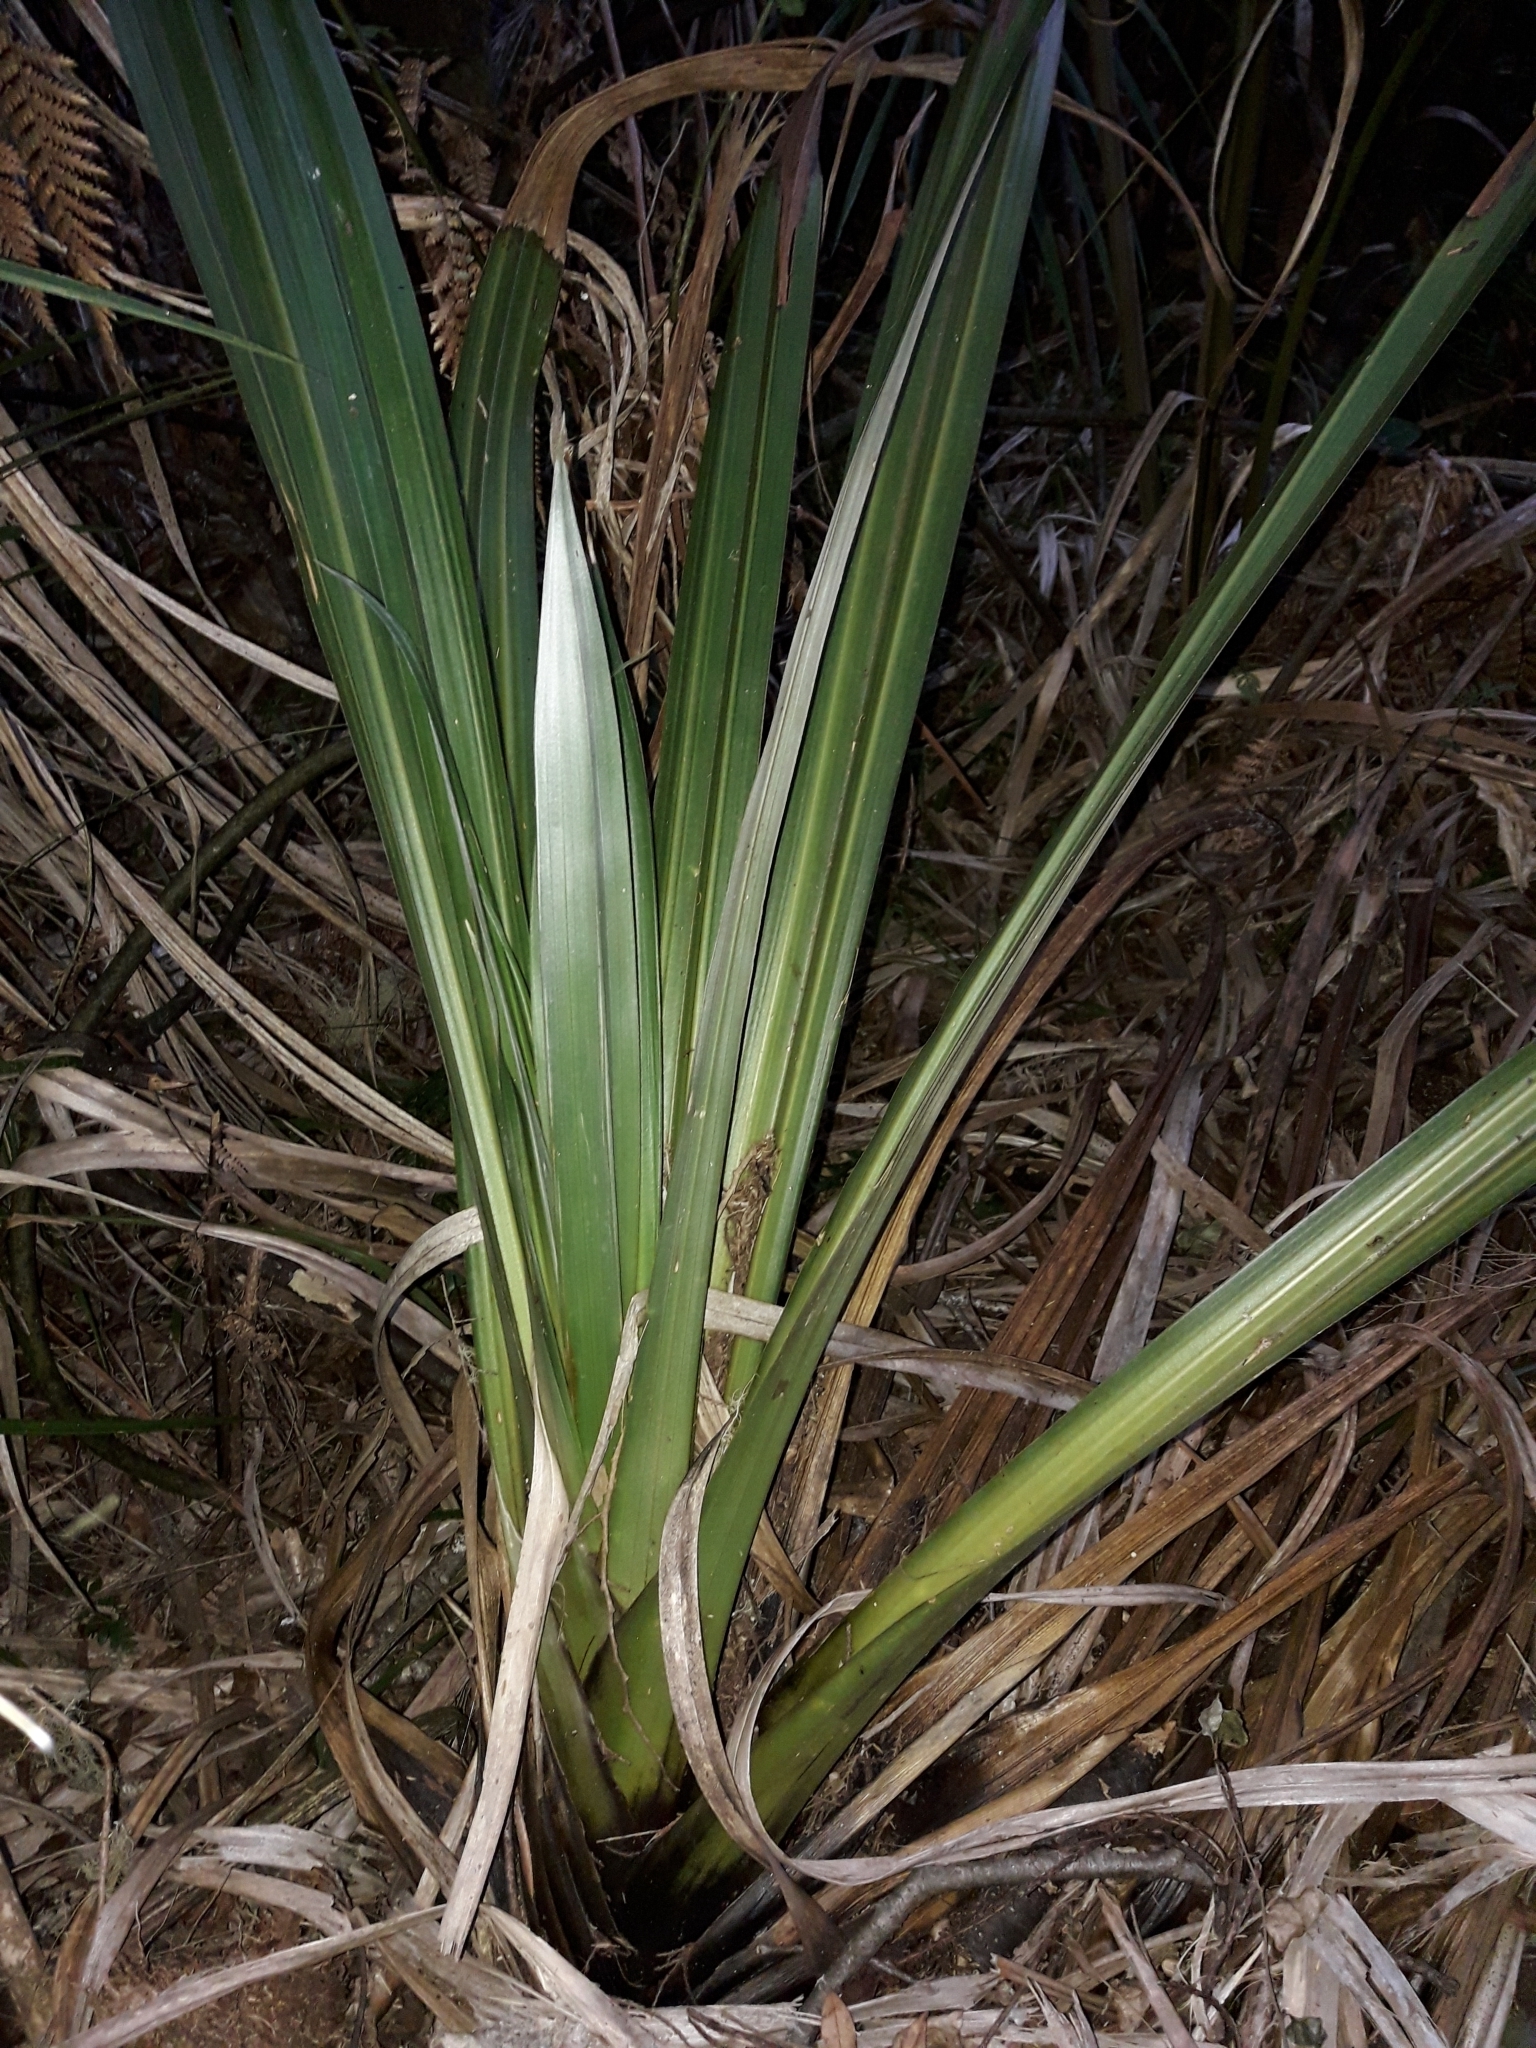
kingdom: Plantae
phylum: Tracheophyta
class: Liliopsida
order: Asparagales
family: Asteliaceae
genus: Astelia
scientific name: Astelia hastata
